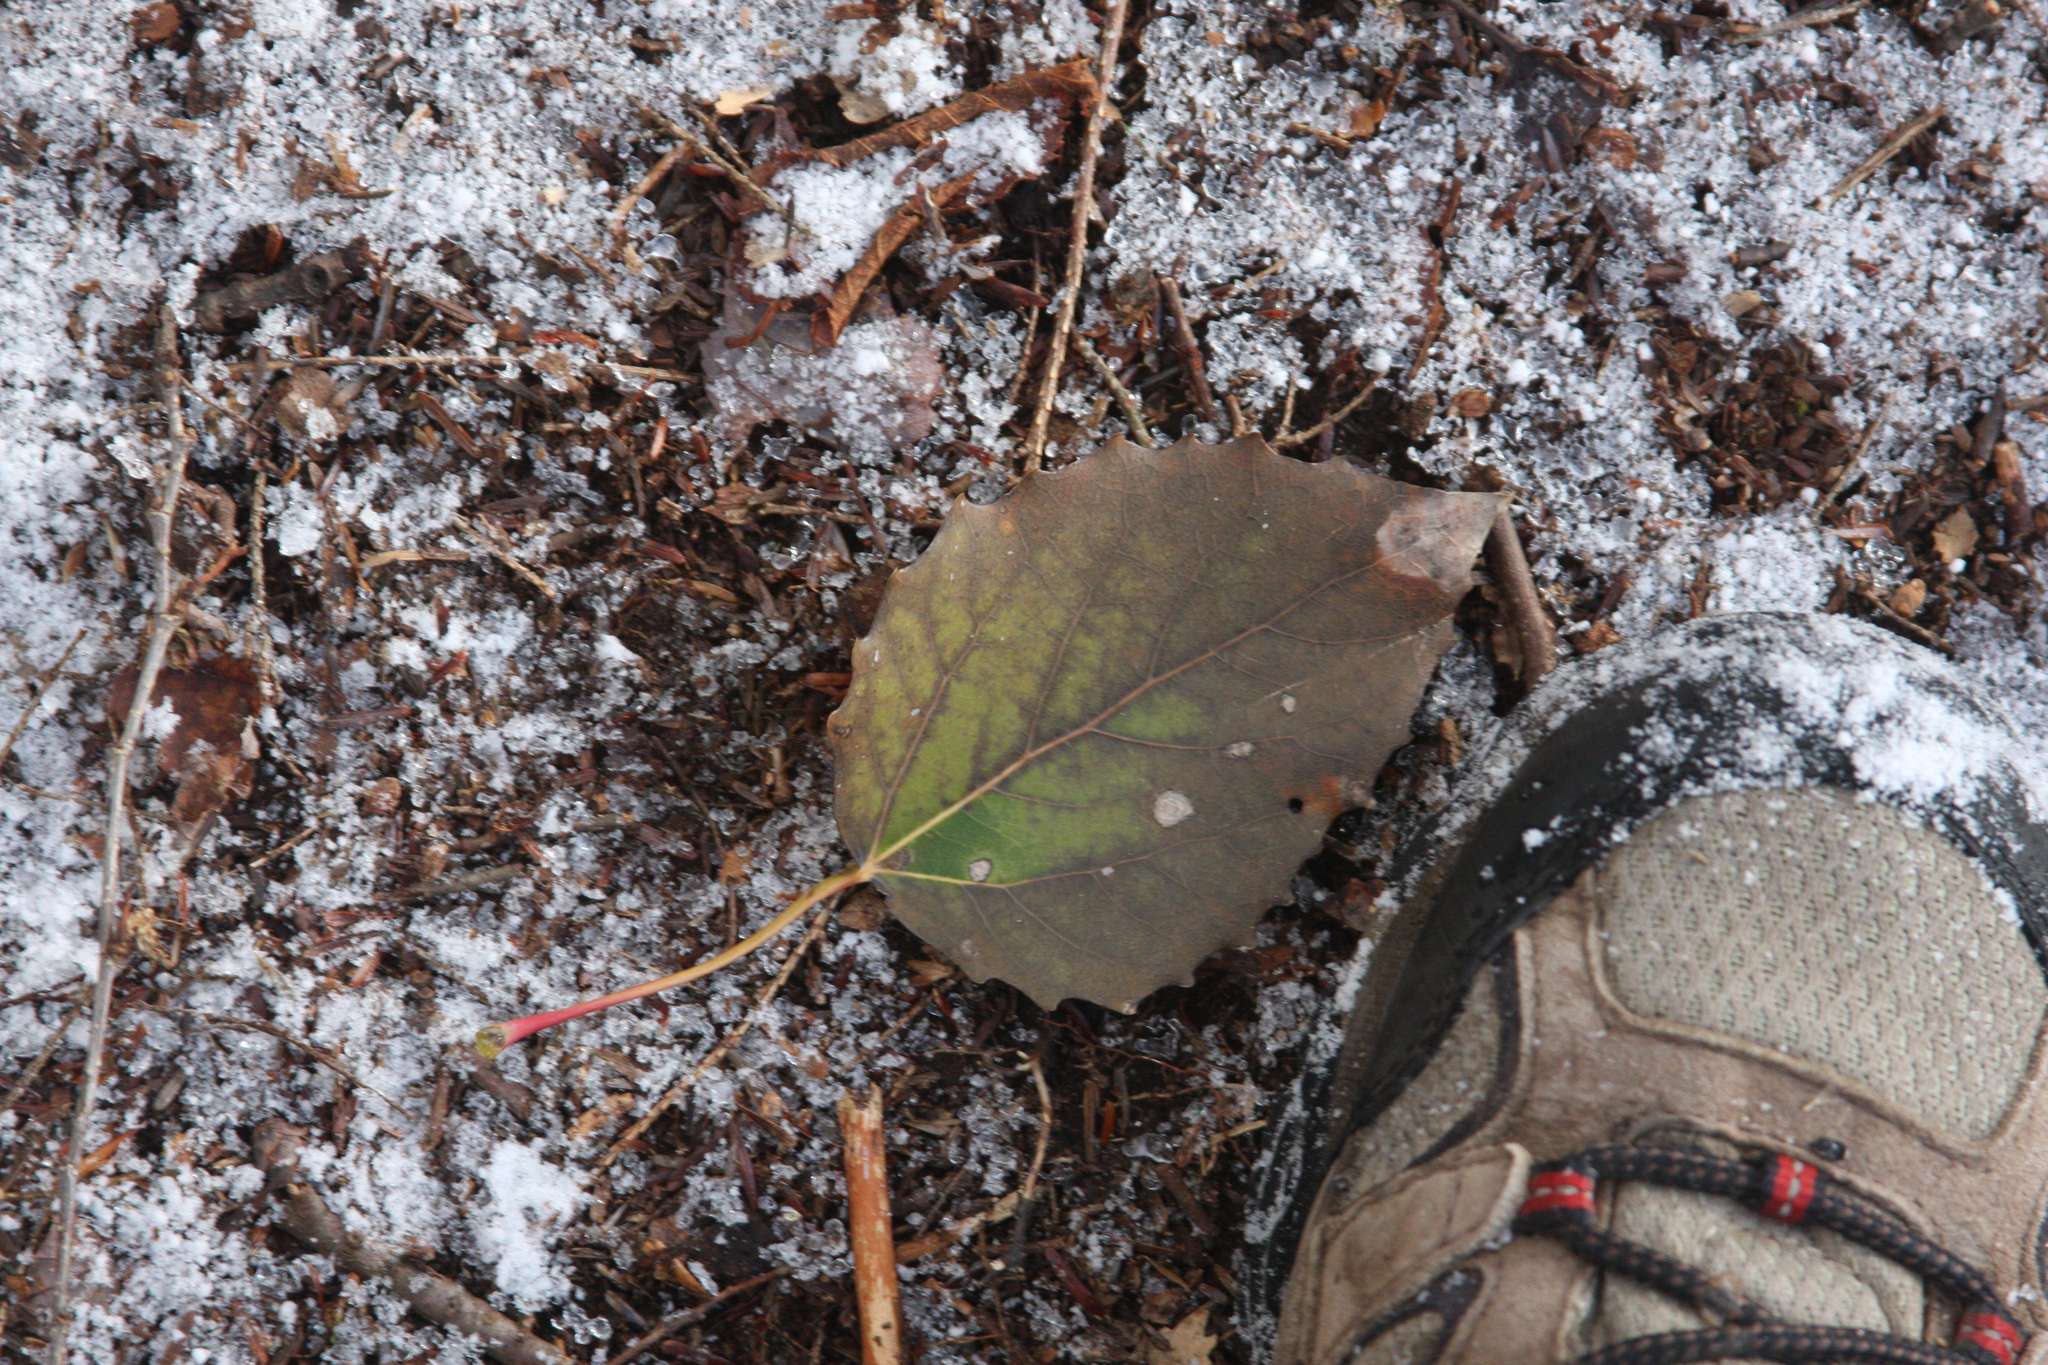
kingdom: Plantae
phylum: Tracheophyta
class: Magnoliopsida
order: Malpighiales
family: Salicaceae
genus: Populus
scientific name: Populus grandidentata
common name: Bigtooth aspen
